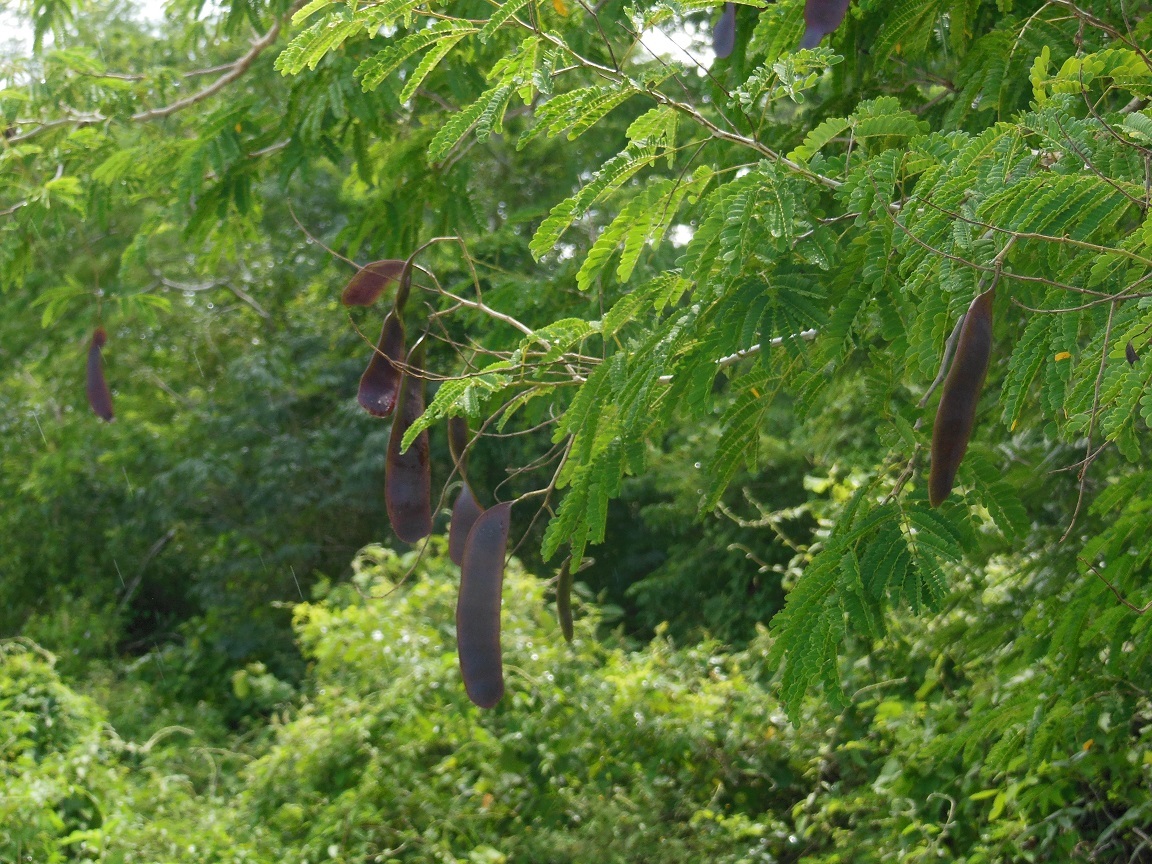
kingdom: Plantae
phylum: Tracheophyta
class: Magnoliopsida
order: Fabales
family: Fabaceae
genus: Senegalia
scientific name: Senegalia gaumeri
